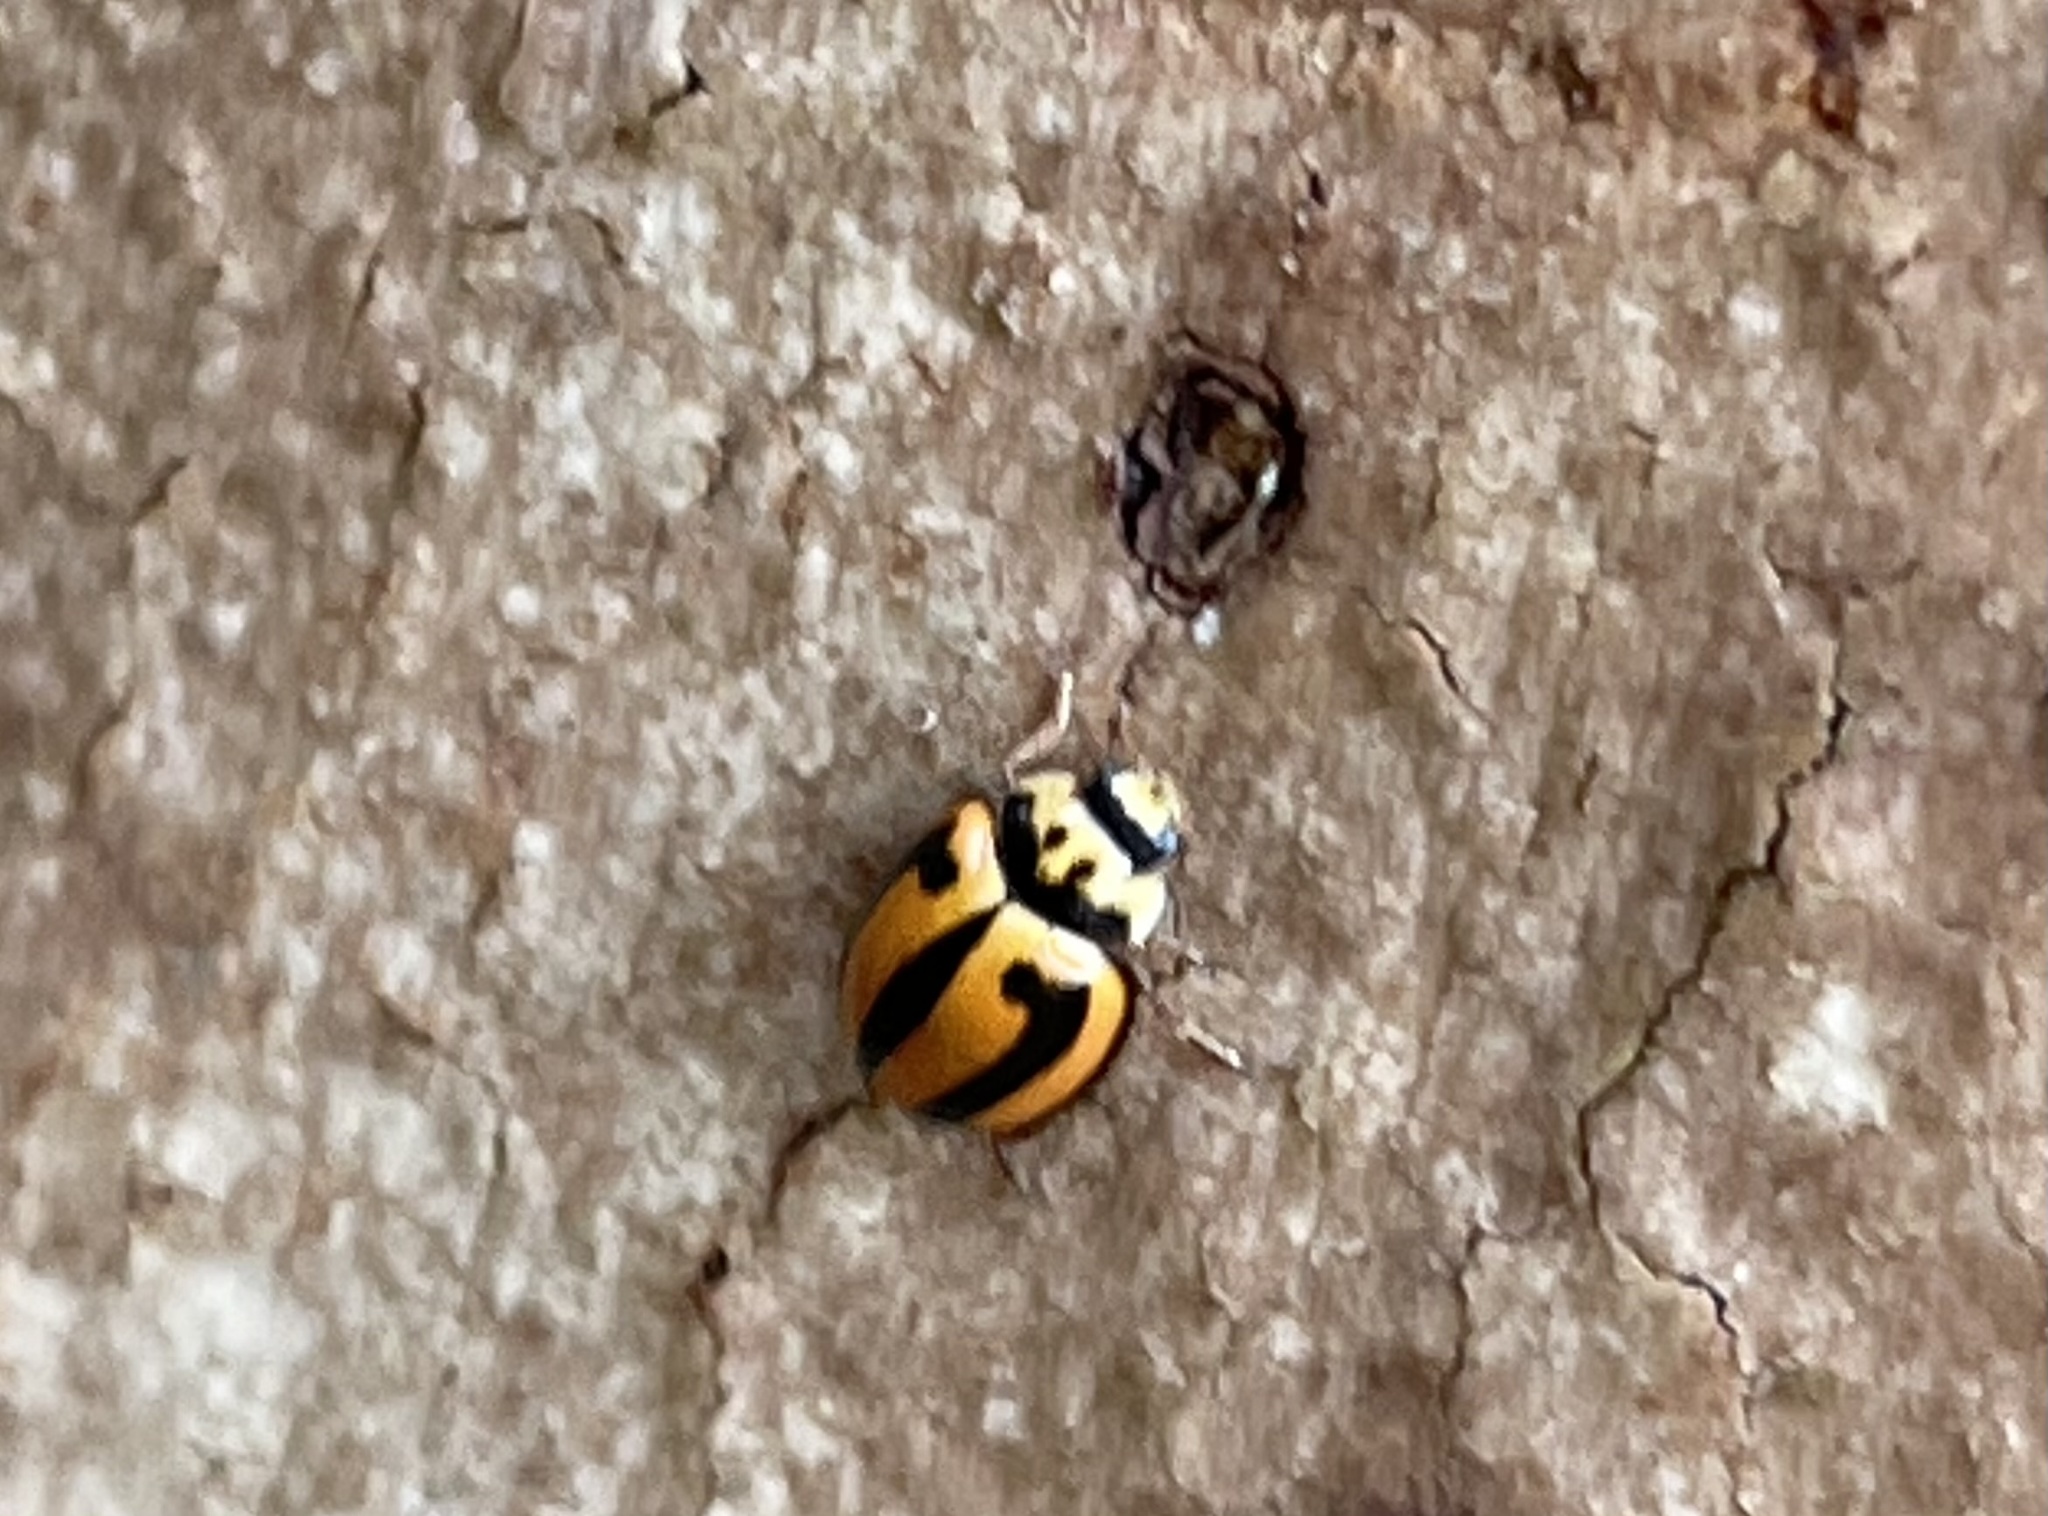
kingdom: Animalia
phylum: Arthropoda
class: Insecta
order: Coleoptera
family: Coccinellidae
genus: Micraspis
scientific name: Micraspis frenata
